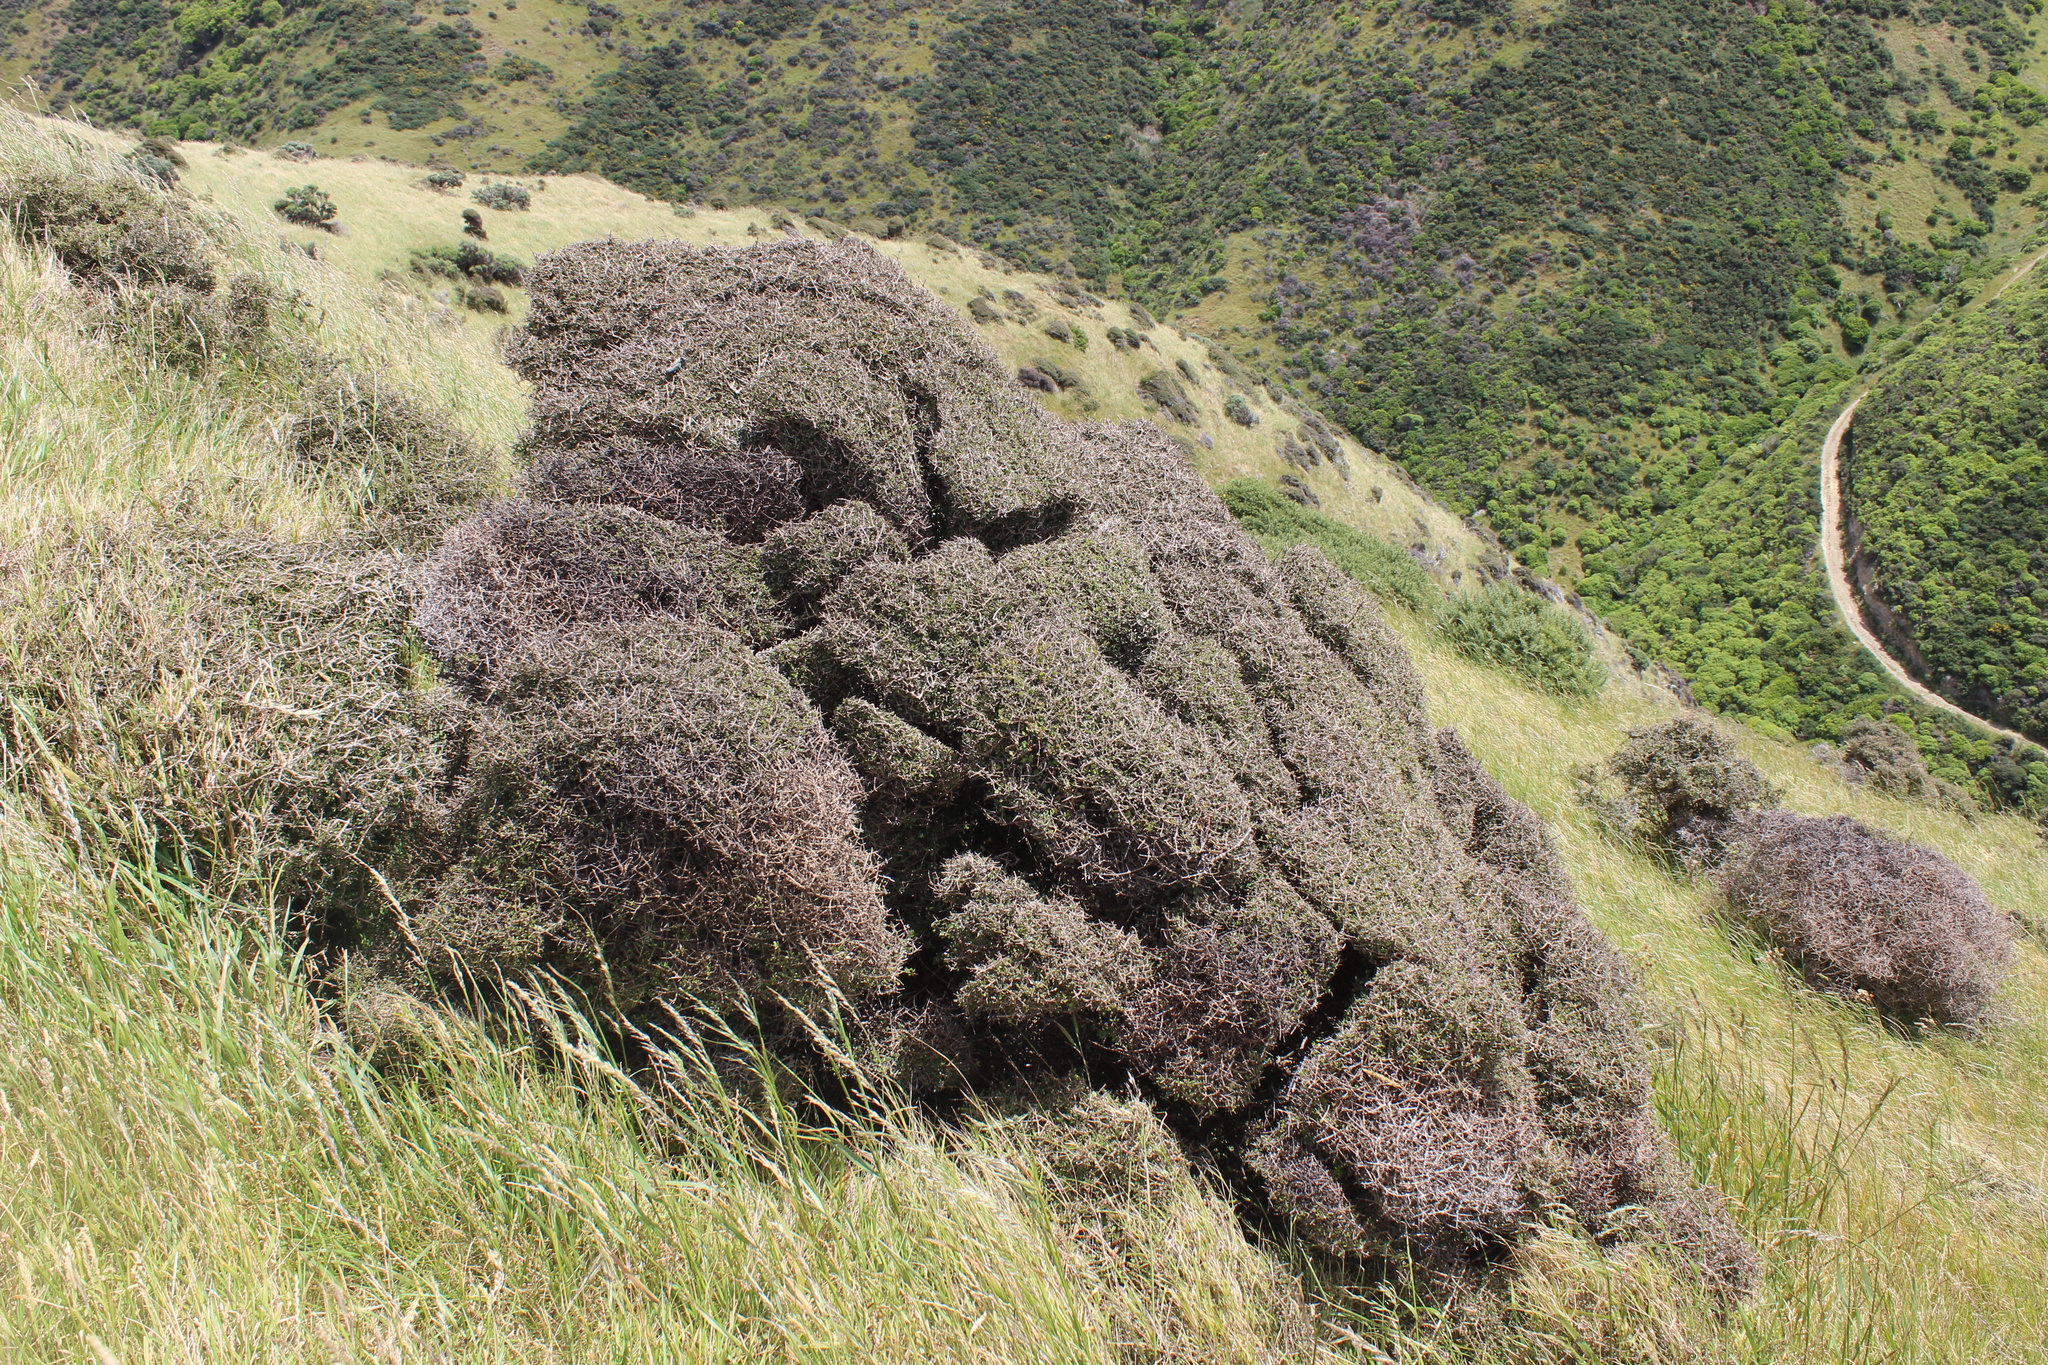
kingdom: Plantae
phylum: Tracheophyta
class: Magnoliopsida
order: Gentianales
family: Rubiaceae
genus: Coprosma
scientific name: Coprosma propinqua
